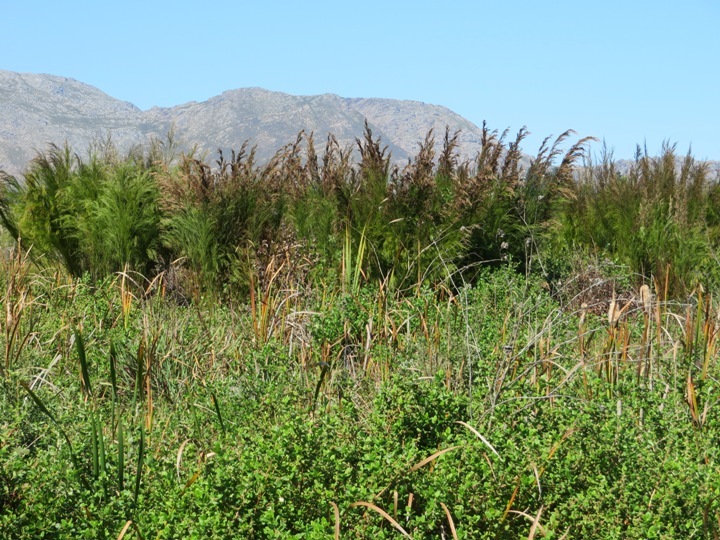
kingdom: Plantae
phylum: Tracheophyta
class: Liliopsida
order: Poales
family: Restionaceae
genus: Restio
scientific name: Restio paniculatus
